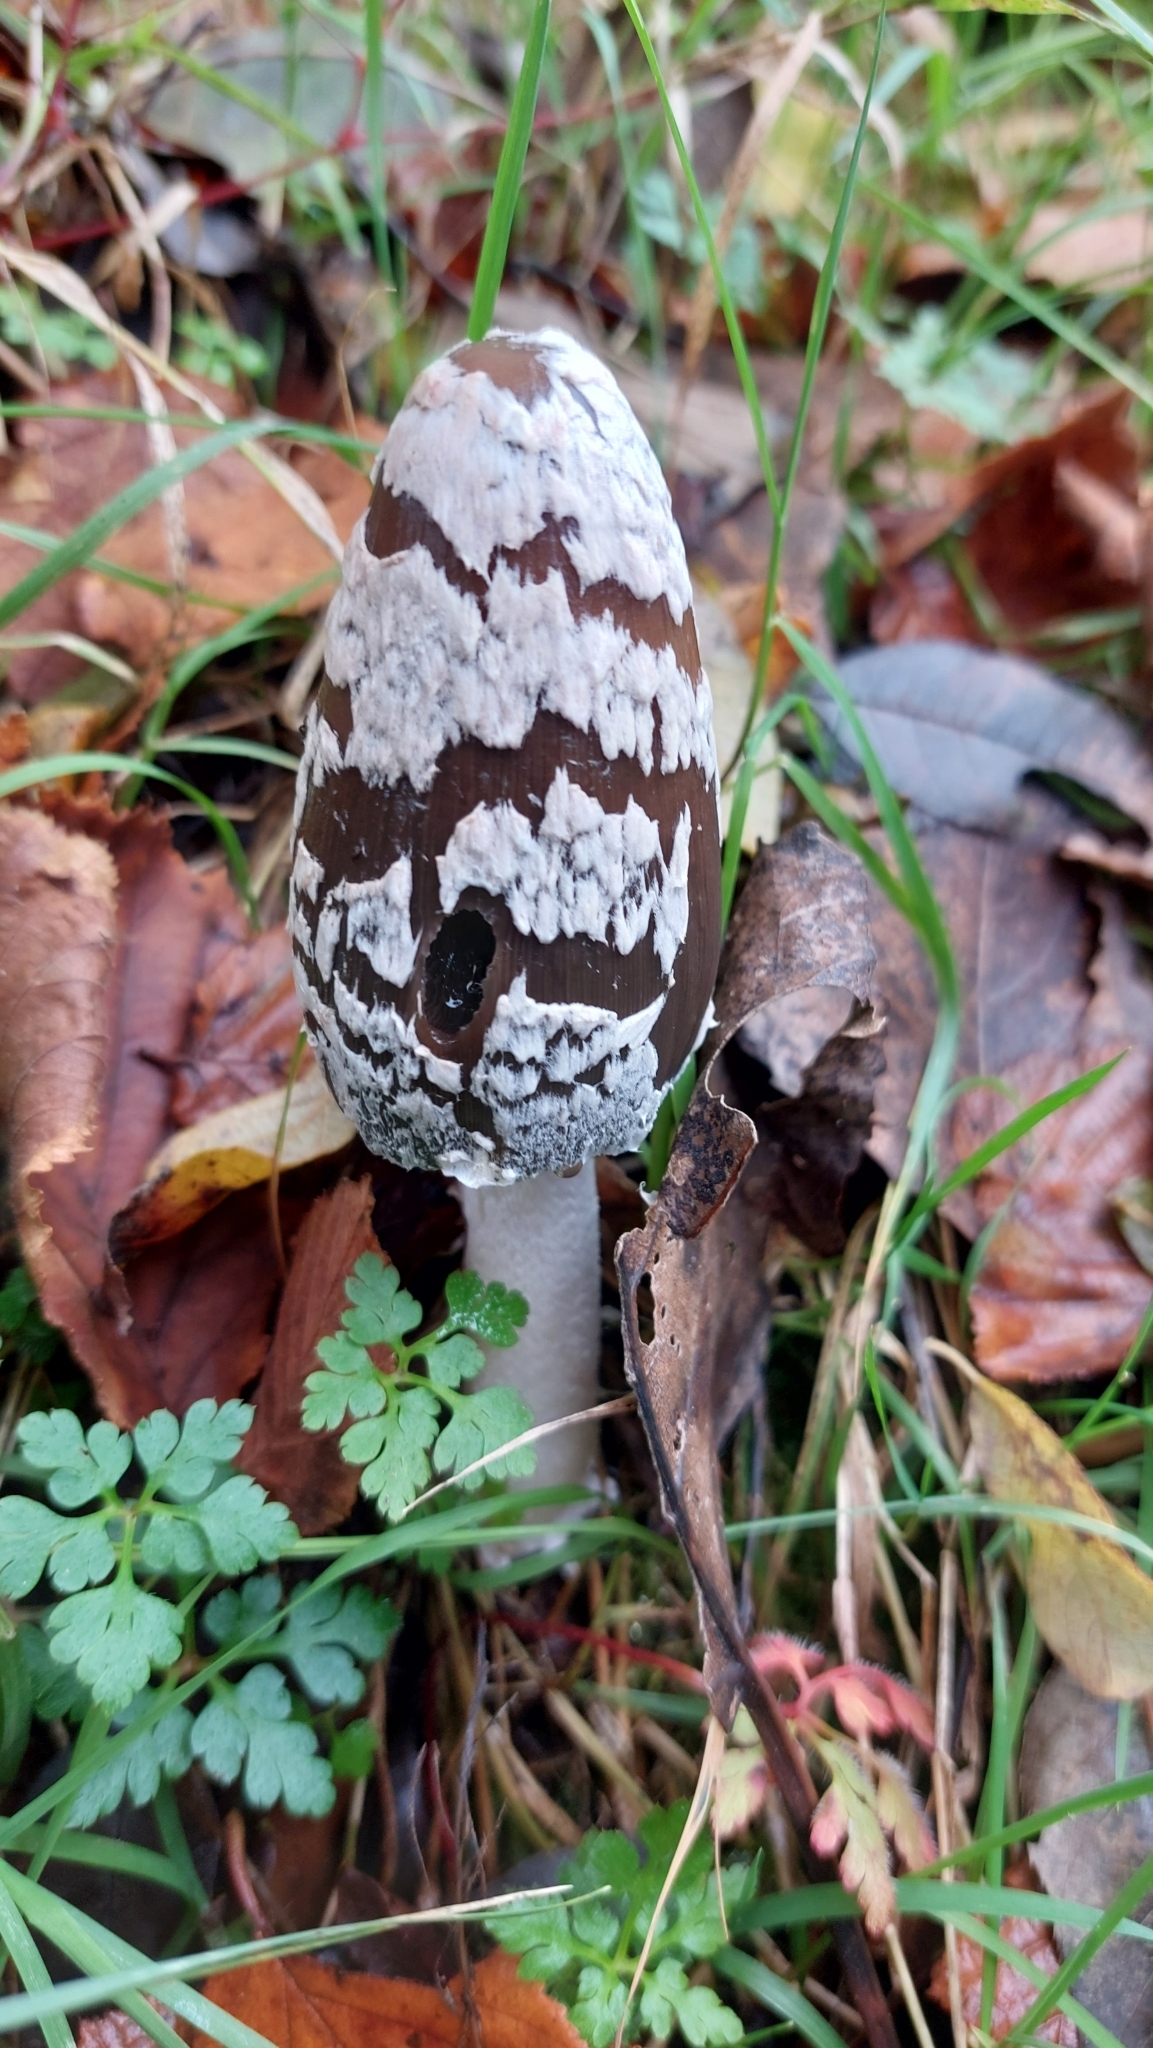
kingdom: Fungi
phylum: Basidiomycota
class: Agaricomycetes
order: Agaricales
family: Psathyrellaceae
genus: Coprinopsis
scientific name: Coprinopsis picacea
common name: Magpie inkcap
